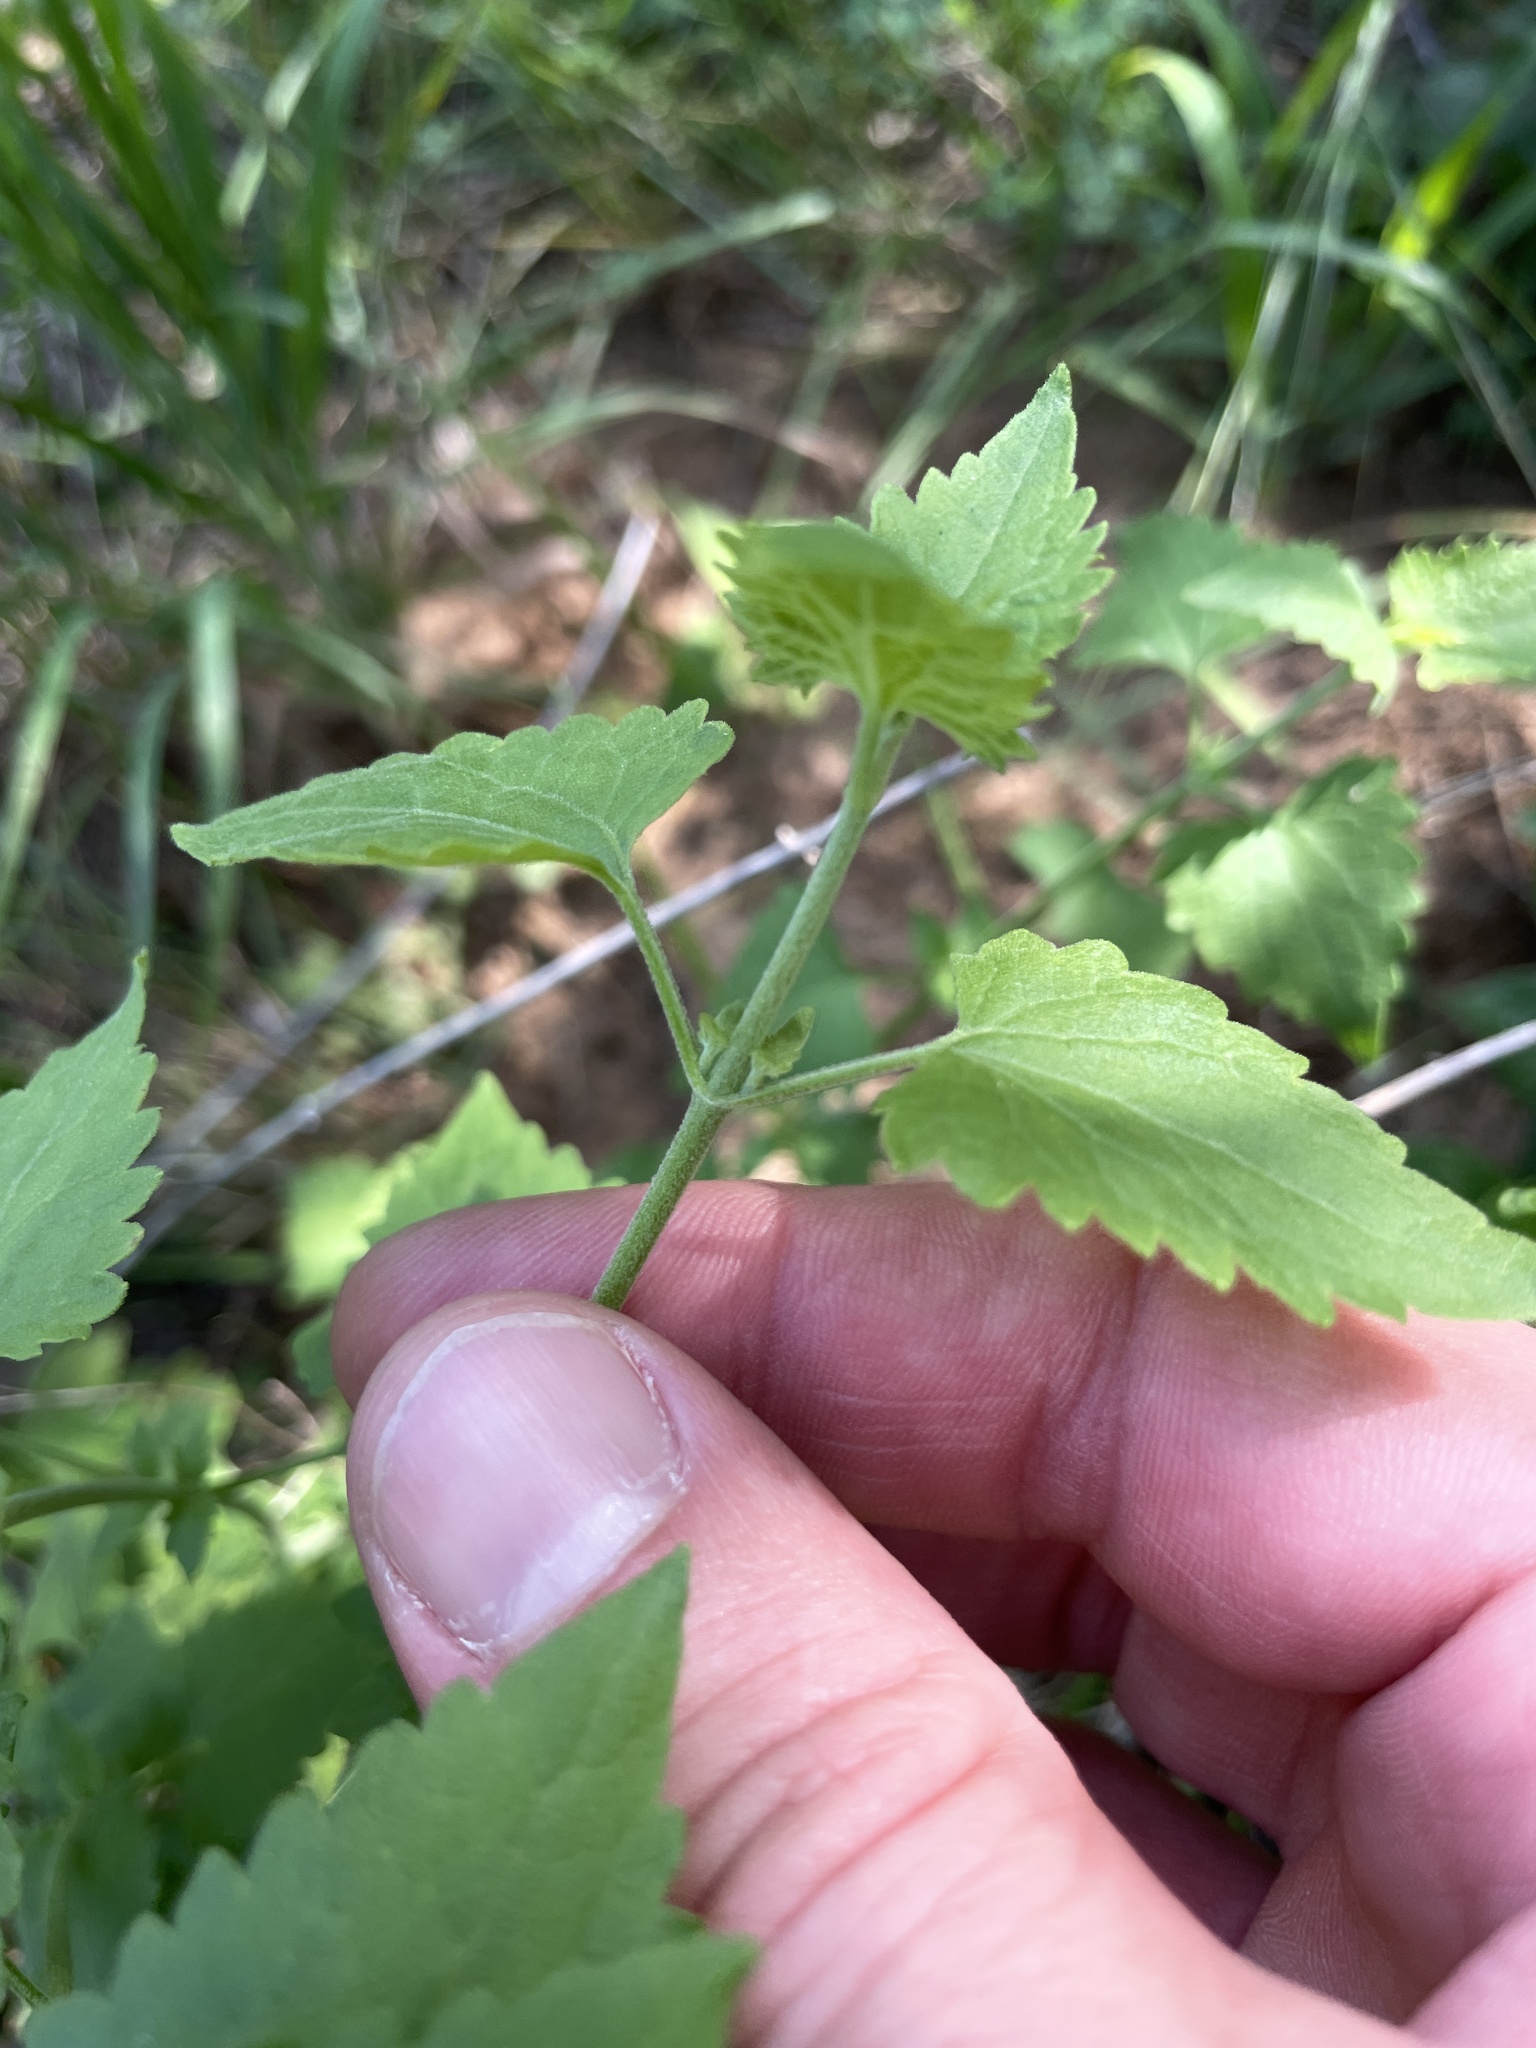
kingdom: Plantae
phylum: Tracheophyta
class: Magnoliopsida
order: Asterales
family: Asteraceae
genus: Fleischmannia
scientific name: Fleischmannia incarnata
